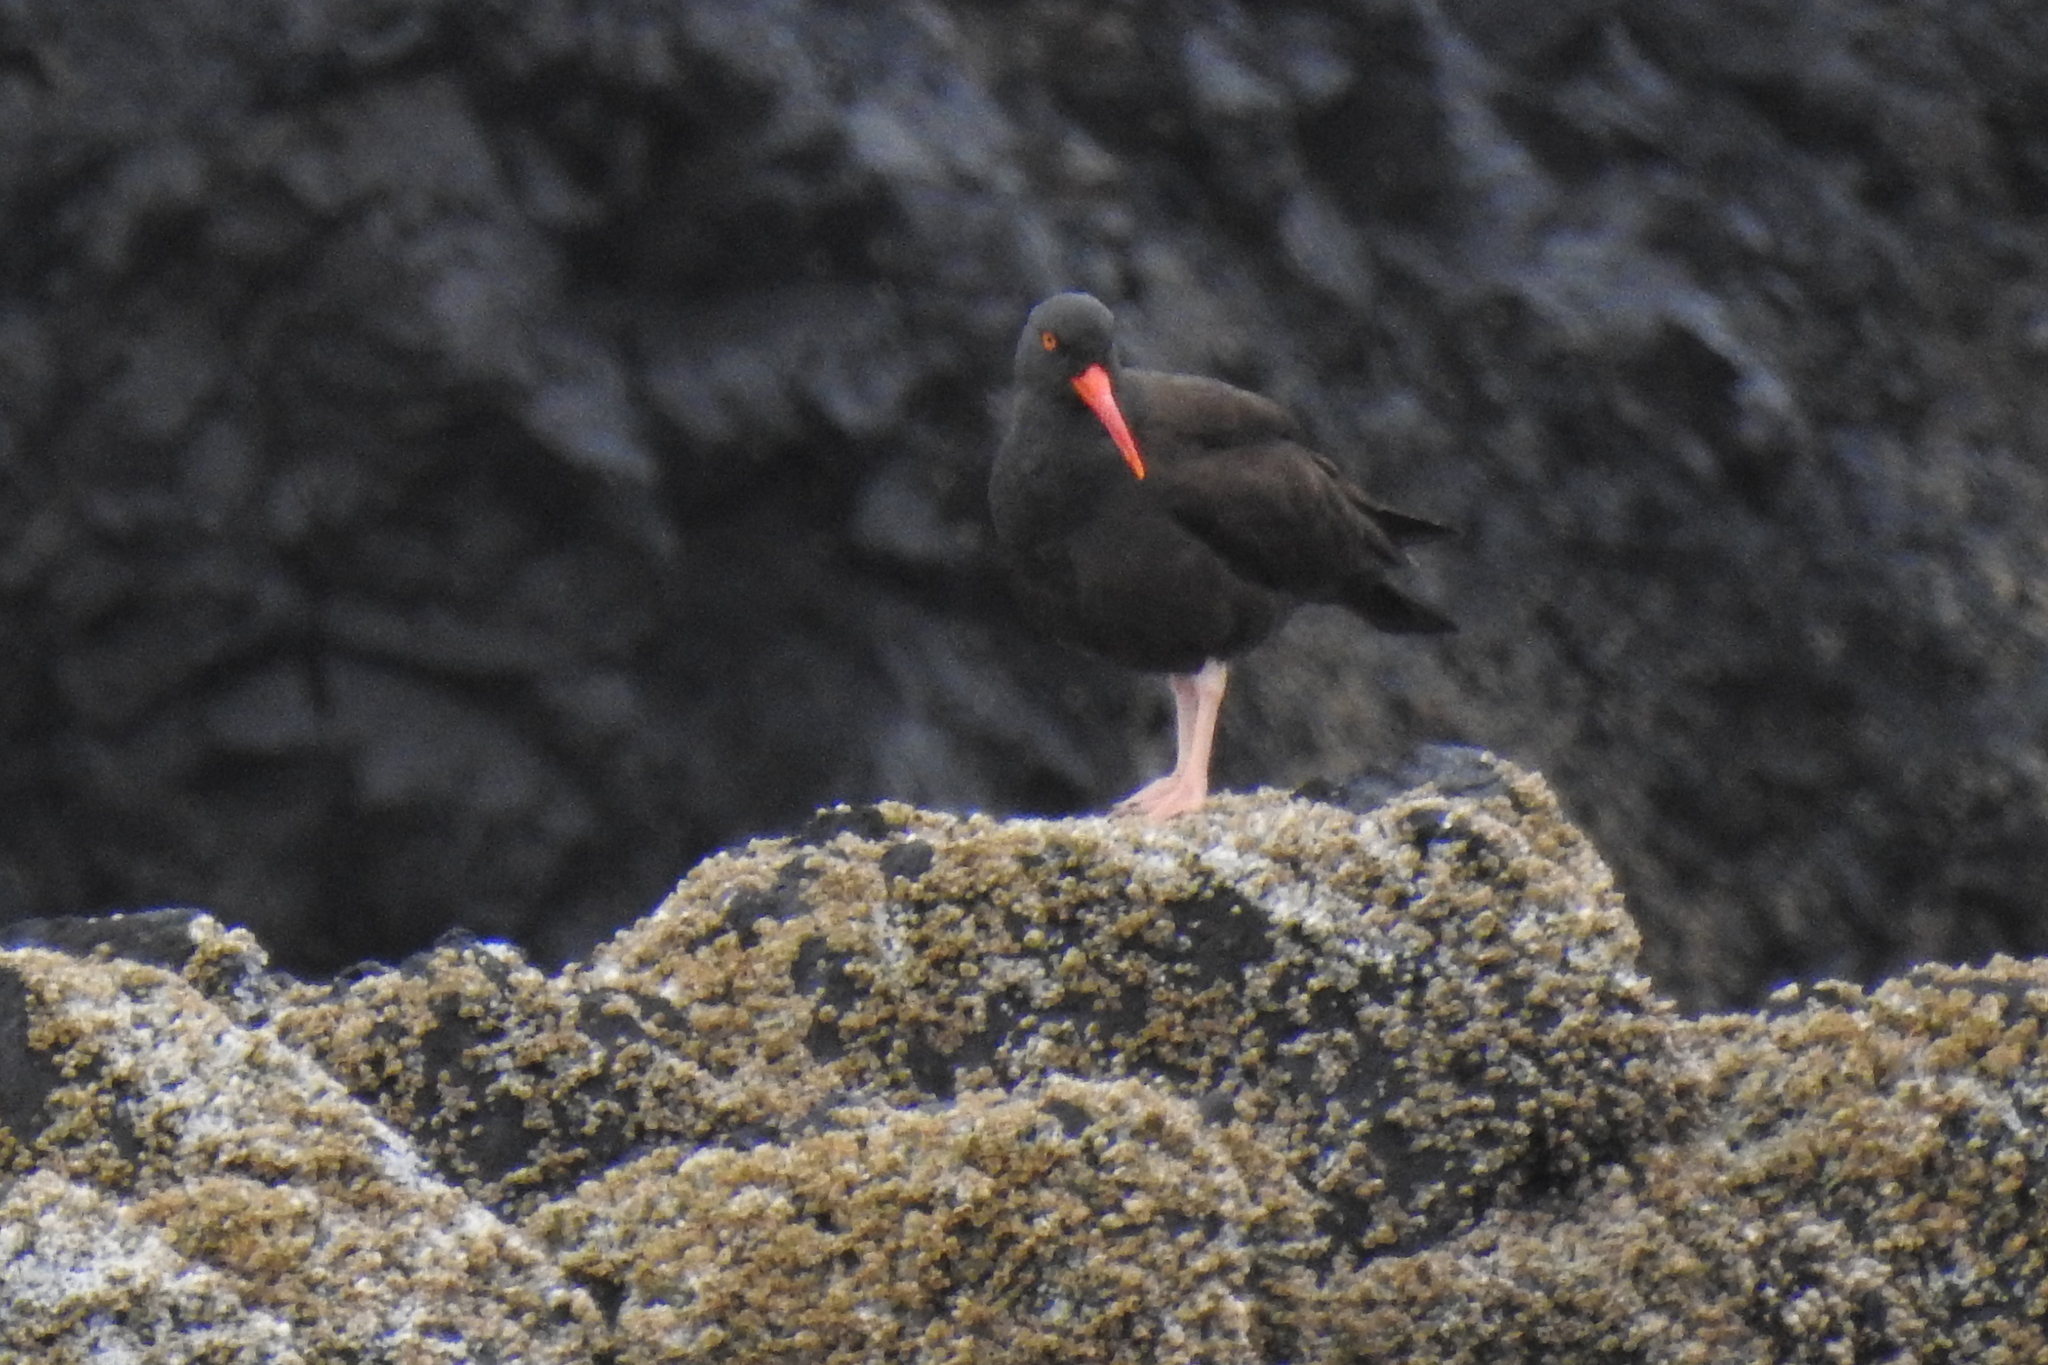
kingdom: Animalia
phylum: Chordata
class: Aves
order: Charadriiformes
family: Haematopodidae
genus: Haematopus
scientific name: Haematopus bachmani
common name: Black oystercatcher
